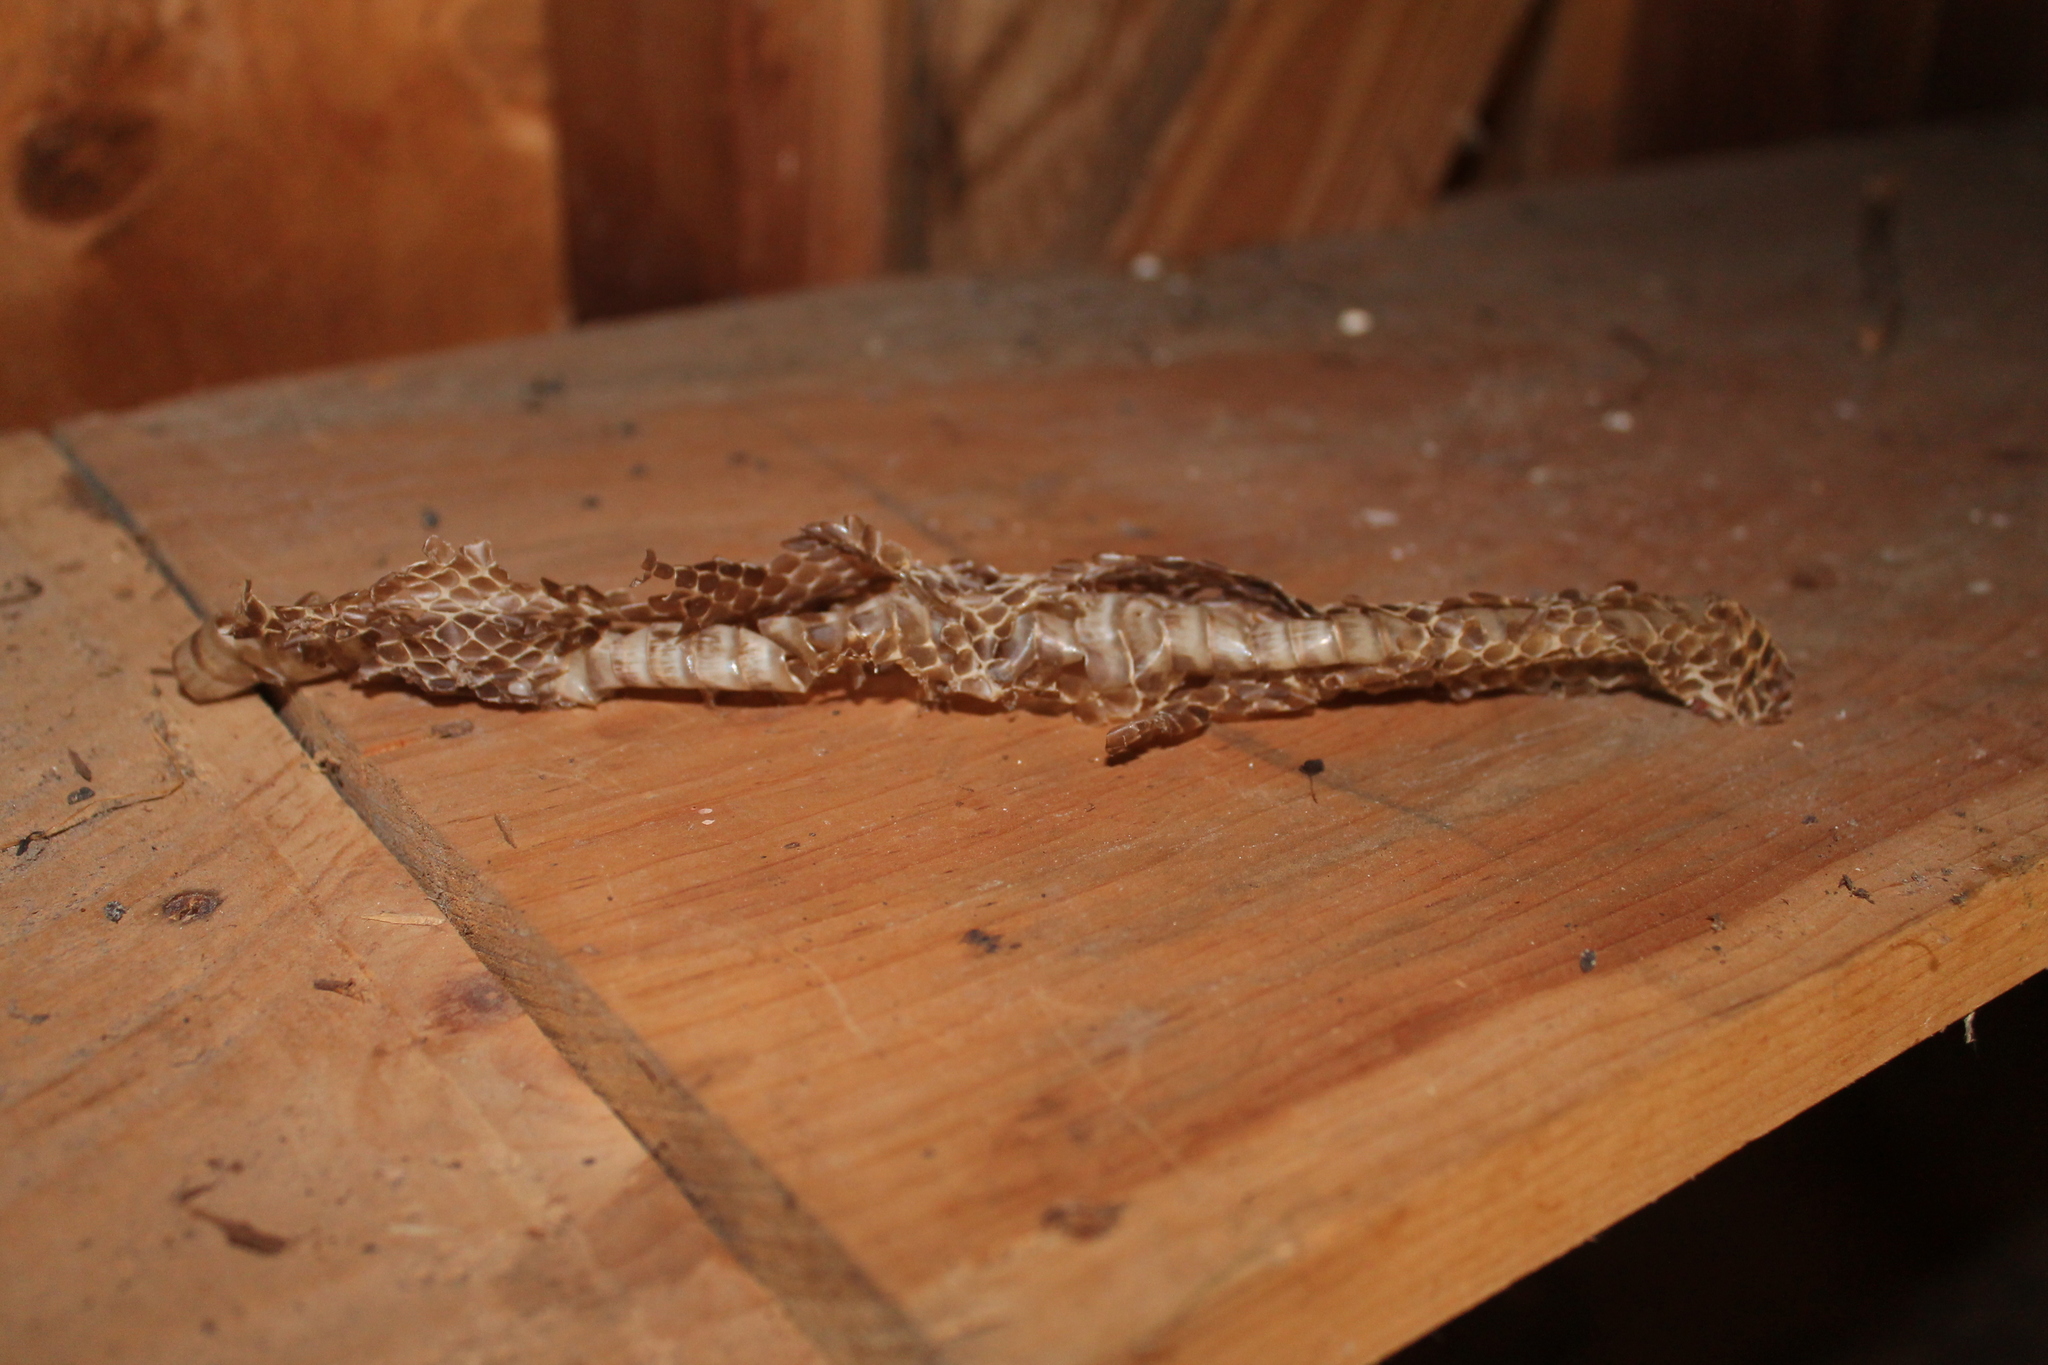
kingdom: Animalia
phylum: Chordata
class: Squamata
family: Colubridae
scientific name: Colubridae
